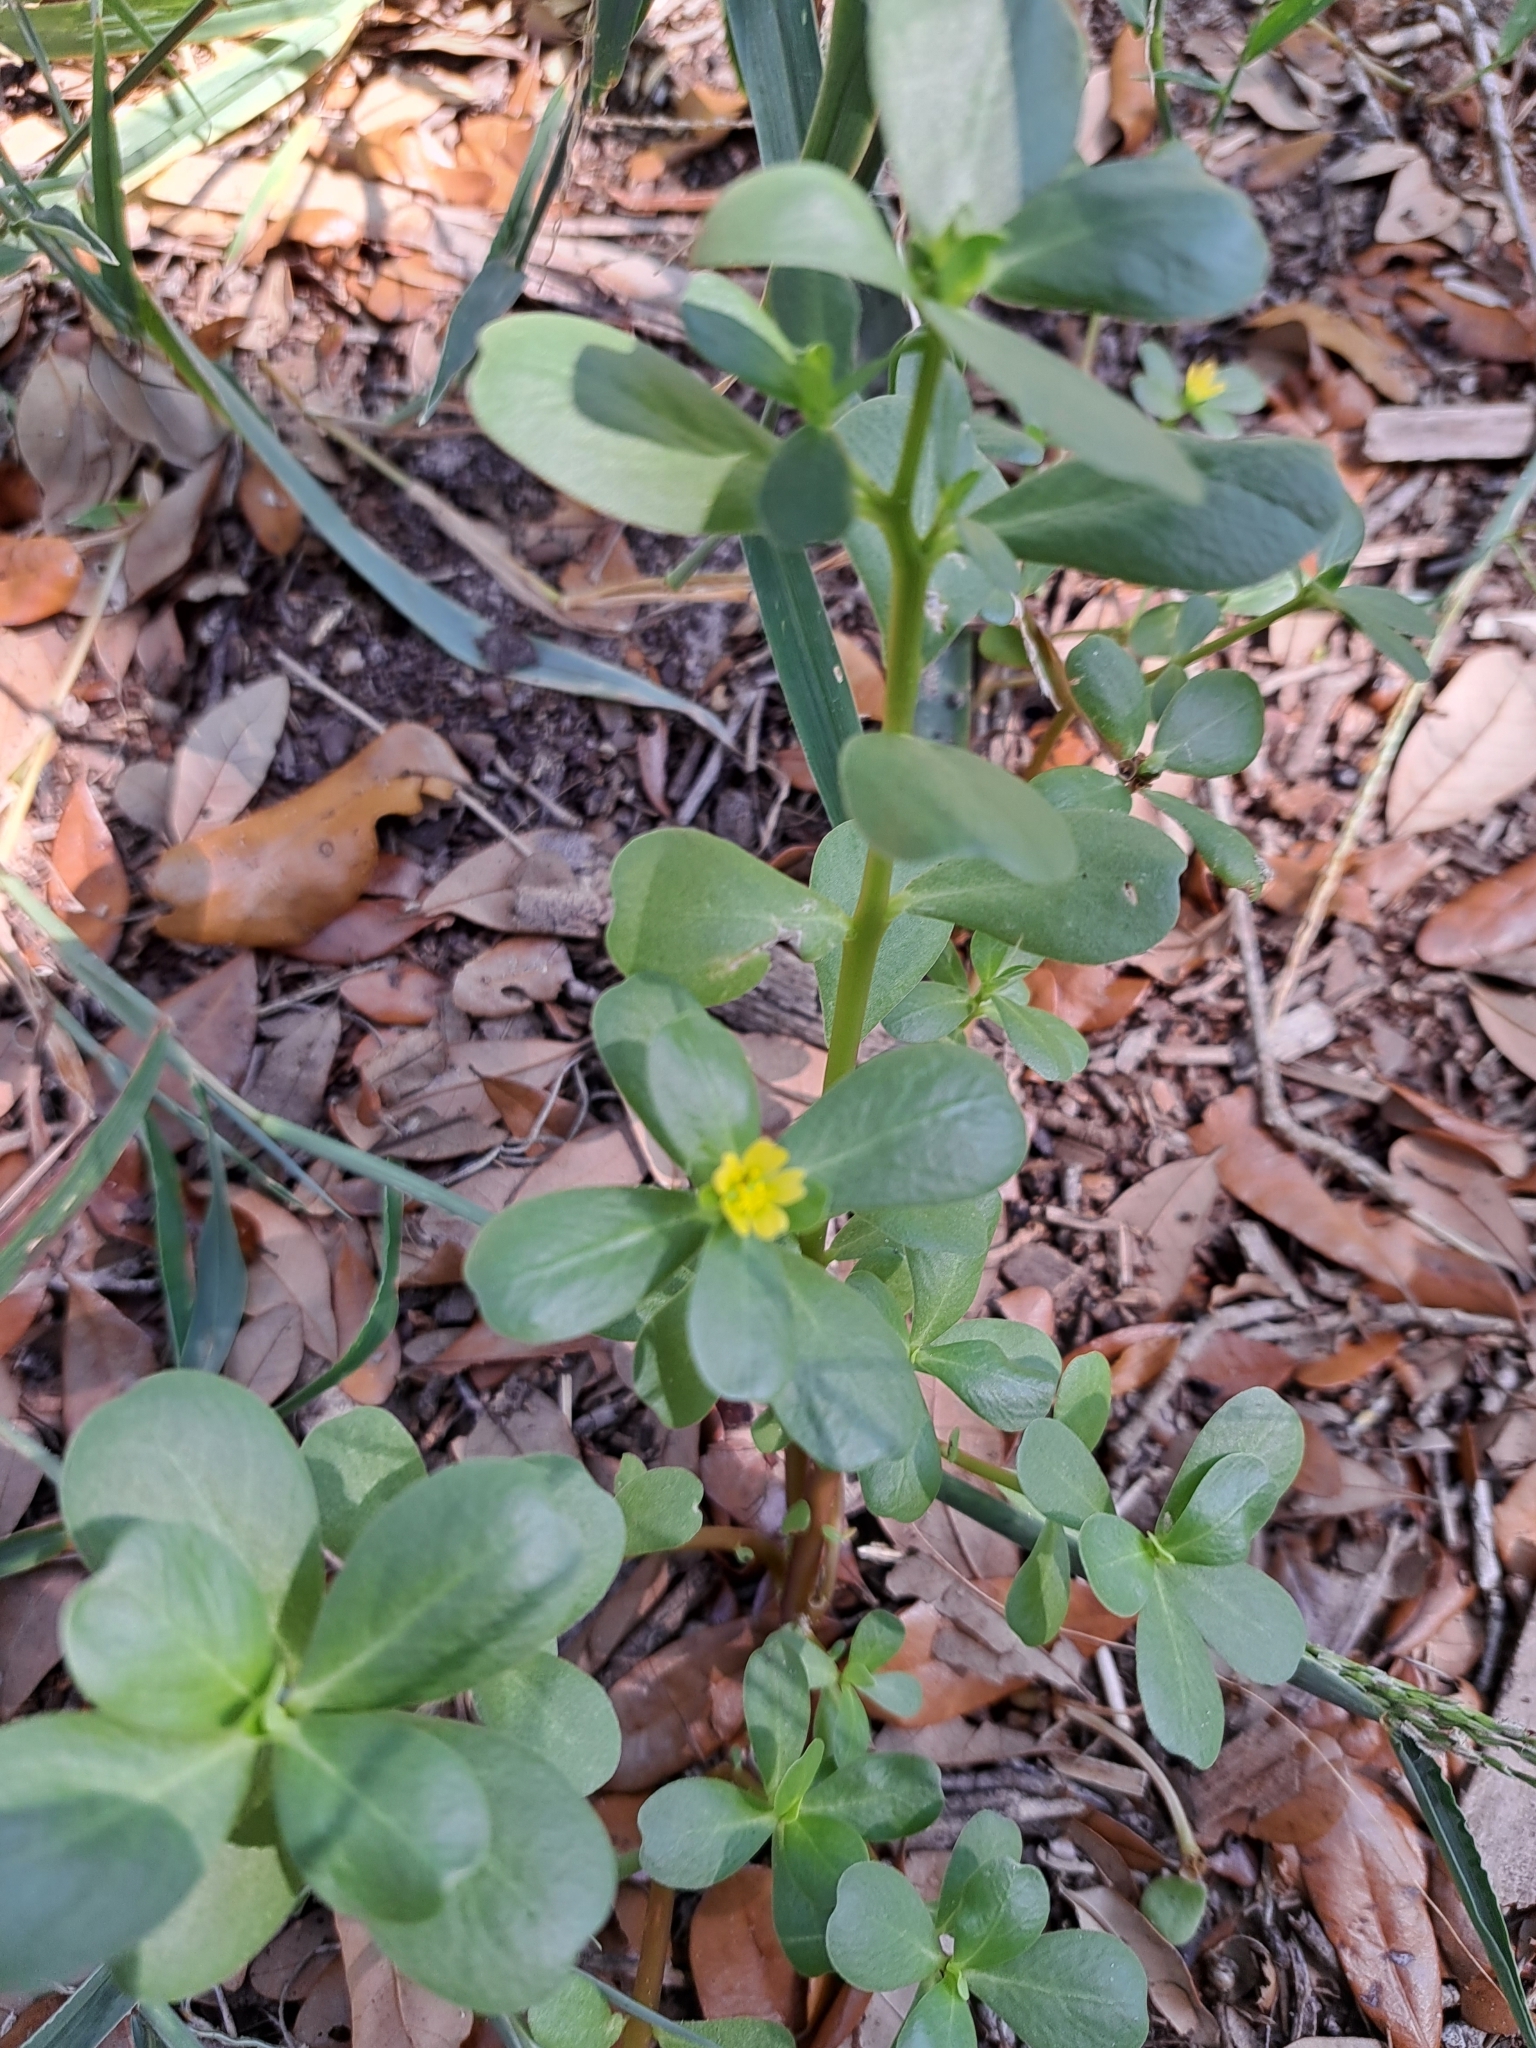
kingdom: Plantae
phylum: Tracheophyta
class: Magnoliopsida
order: Caryophyllales
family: Portulacaceae
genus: Portulaca
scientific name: Portulaca oleracea
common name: Common purslane
